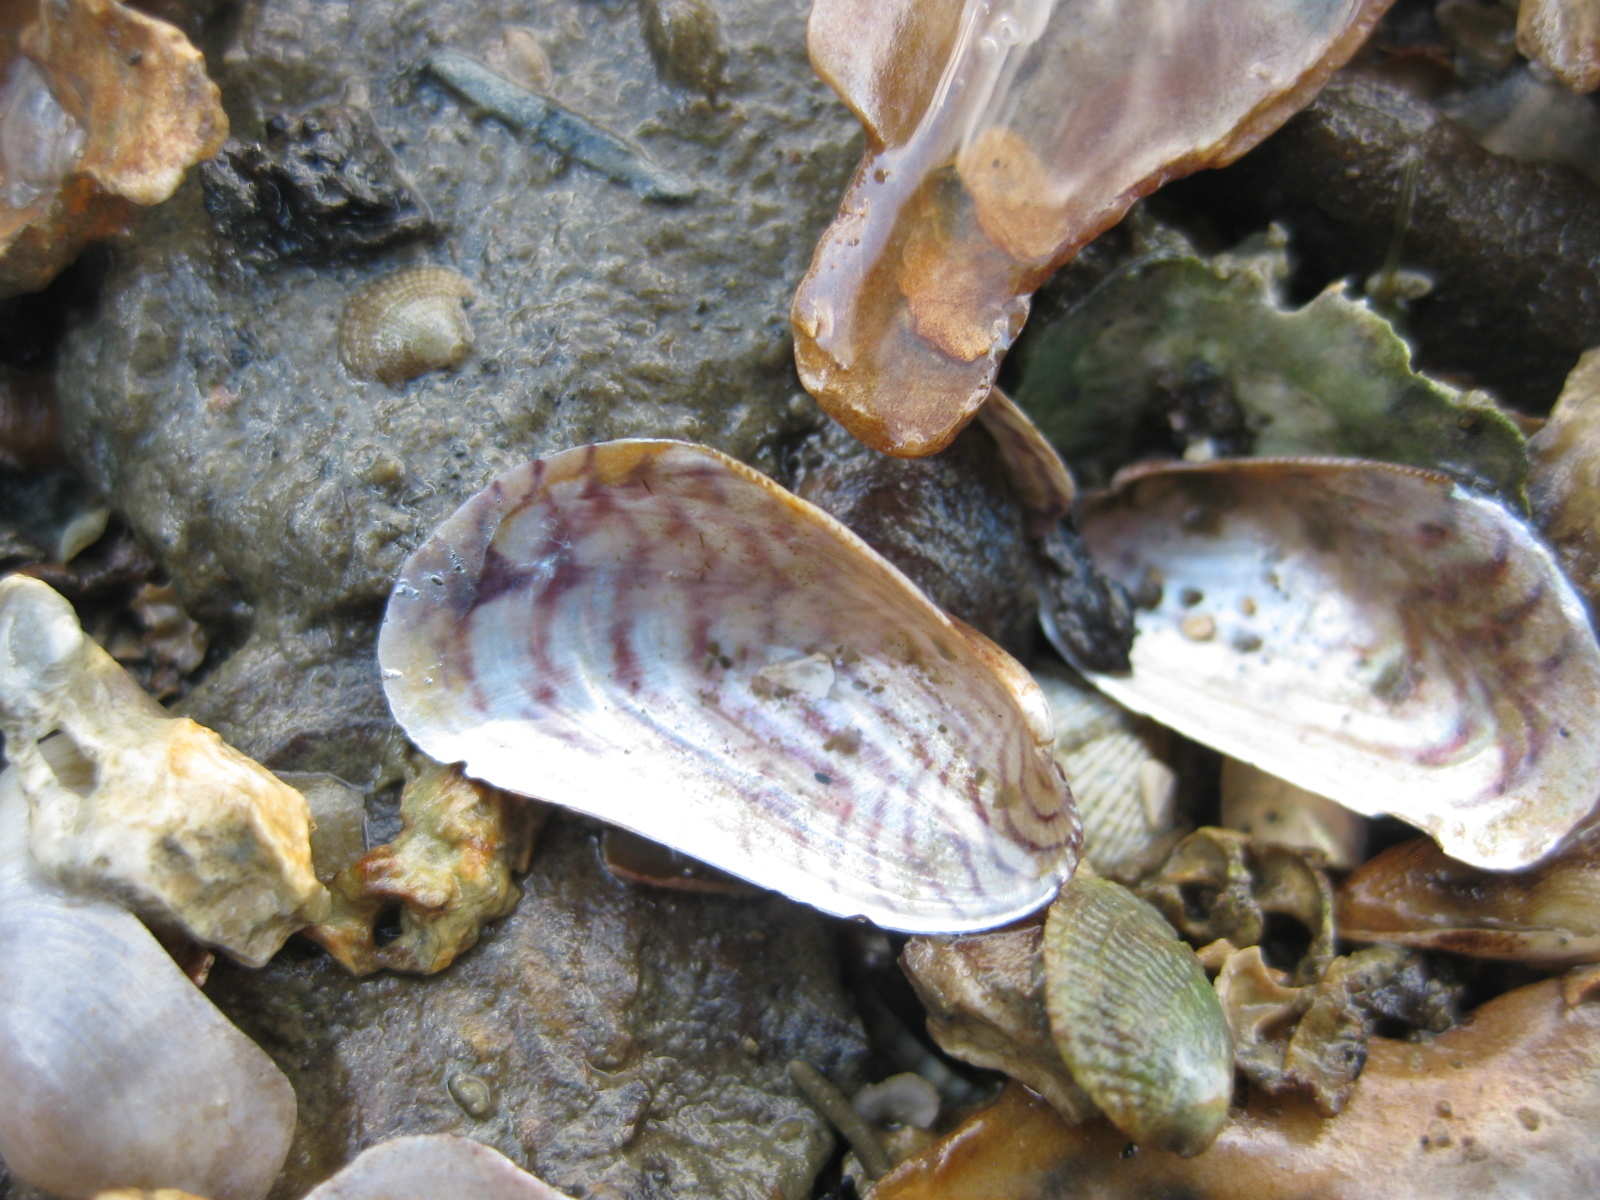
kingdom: Animalia
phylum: Mollusca
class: Bivalvia
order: Mytilida
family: Mytilidae
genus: Arcuatula
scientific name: Arcuatula senhousia
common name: Asian mussel
